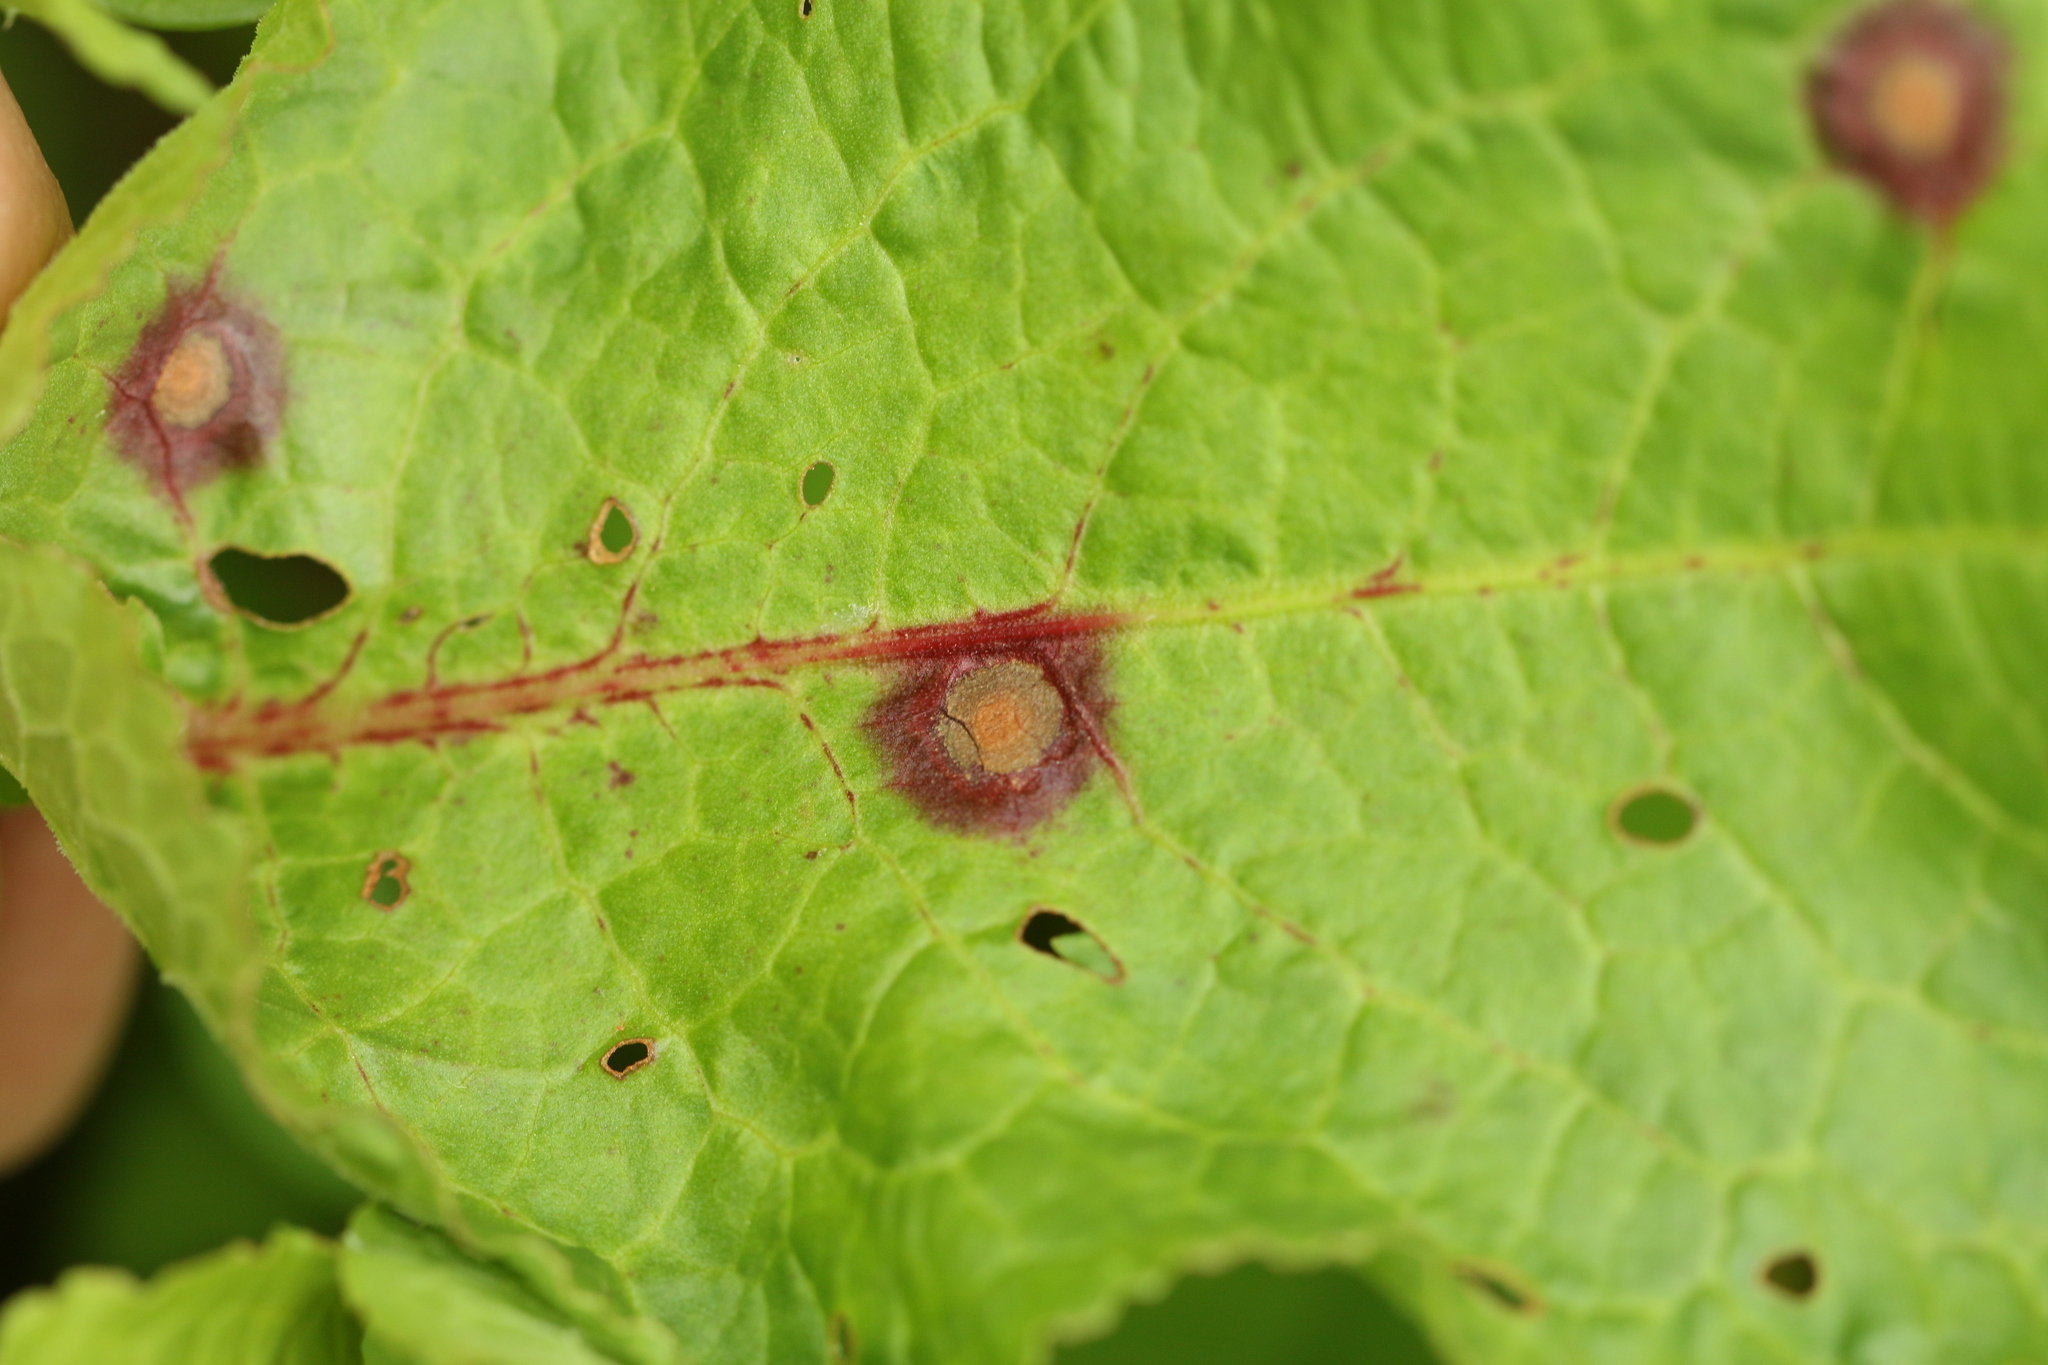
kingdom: Fungi
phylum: Ascomycota
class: Dothideomycetes
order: Mycosphaerellales
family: Mycosphaerellaceae
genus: Ramularia
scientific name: Ramularia rubella
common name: Red dock spot
